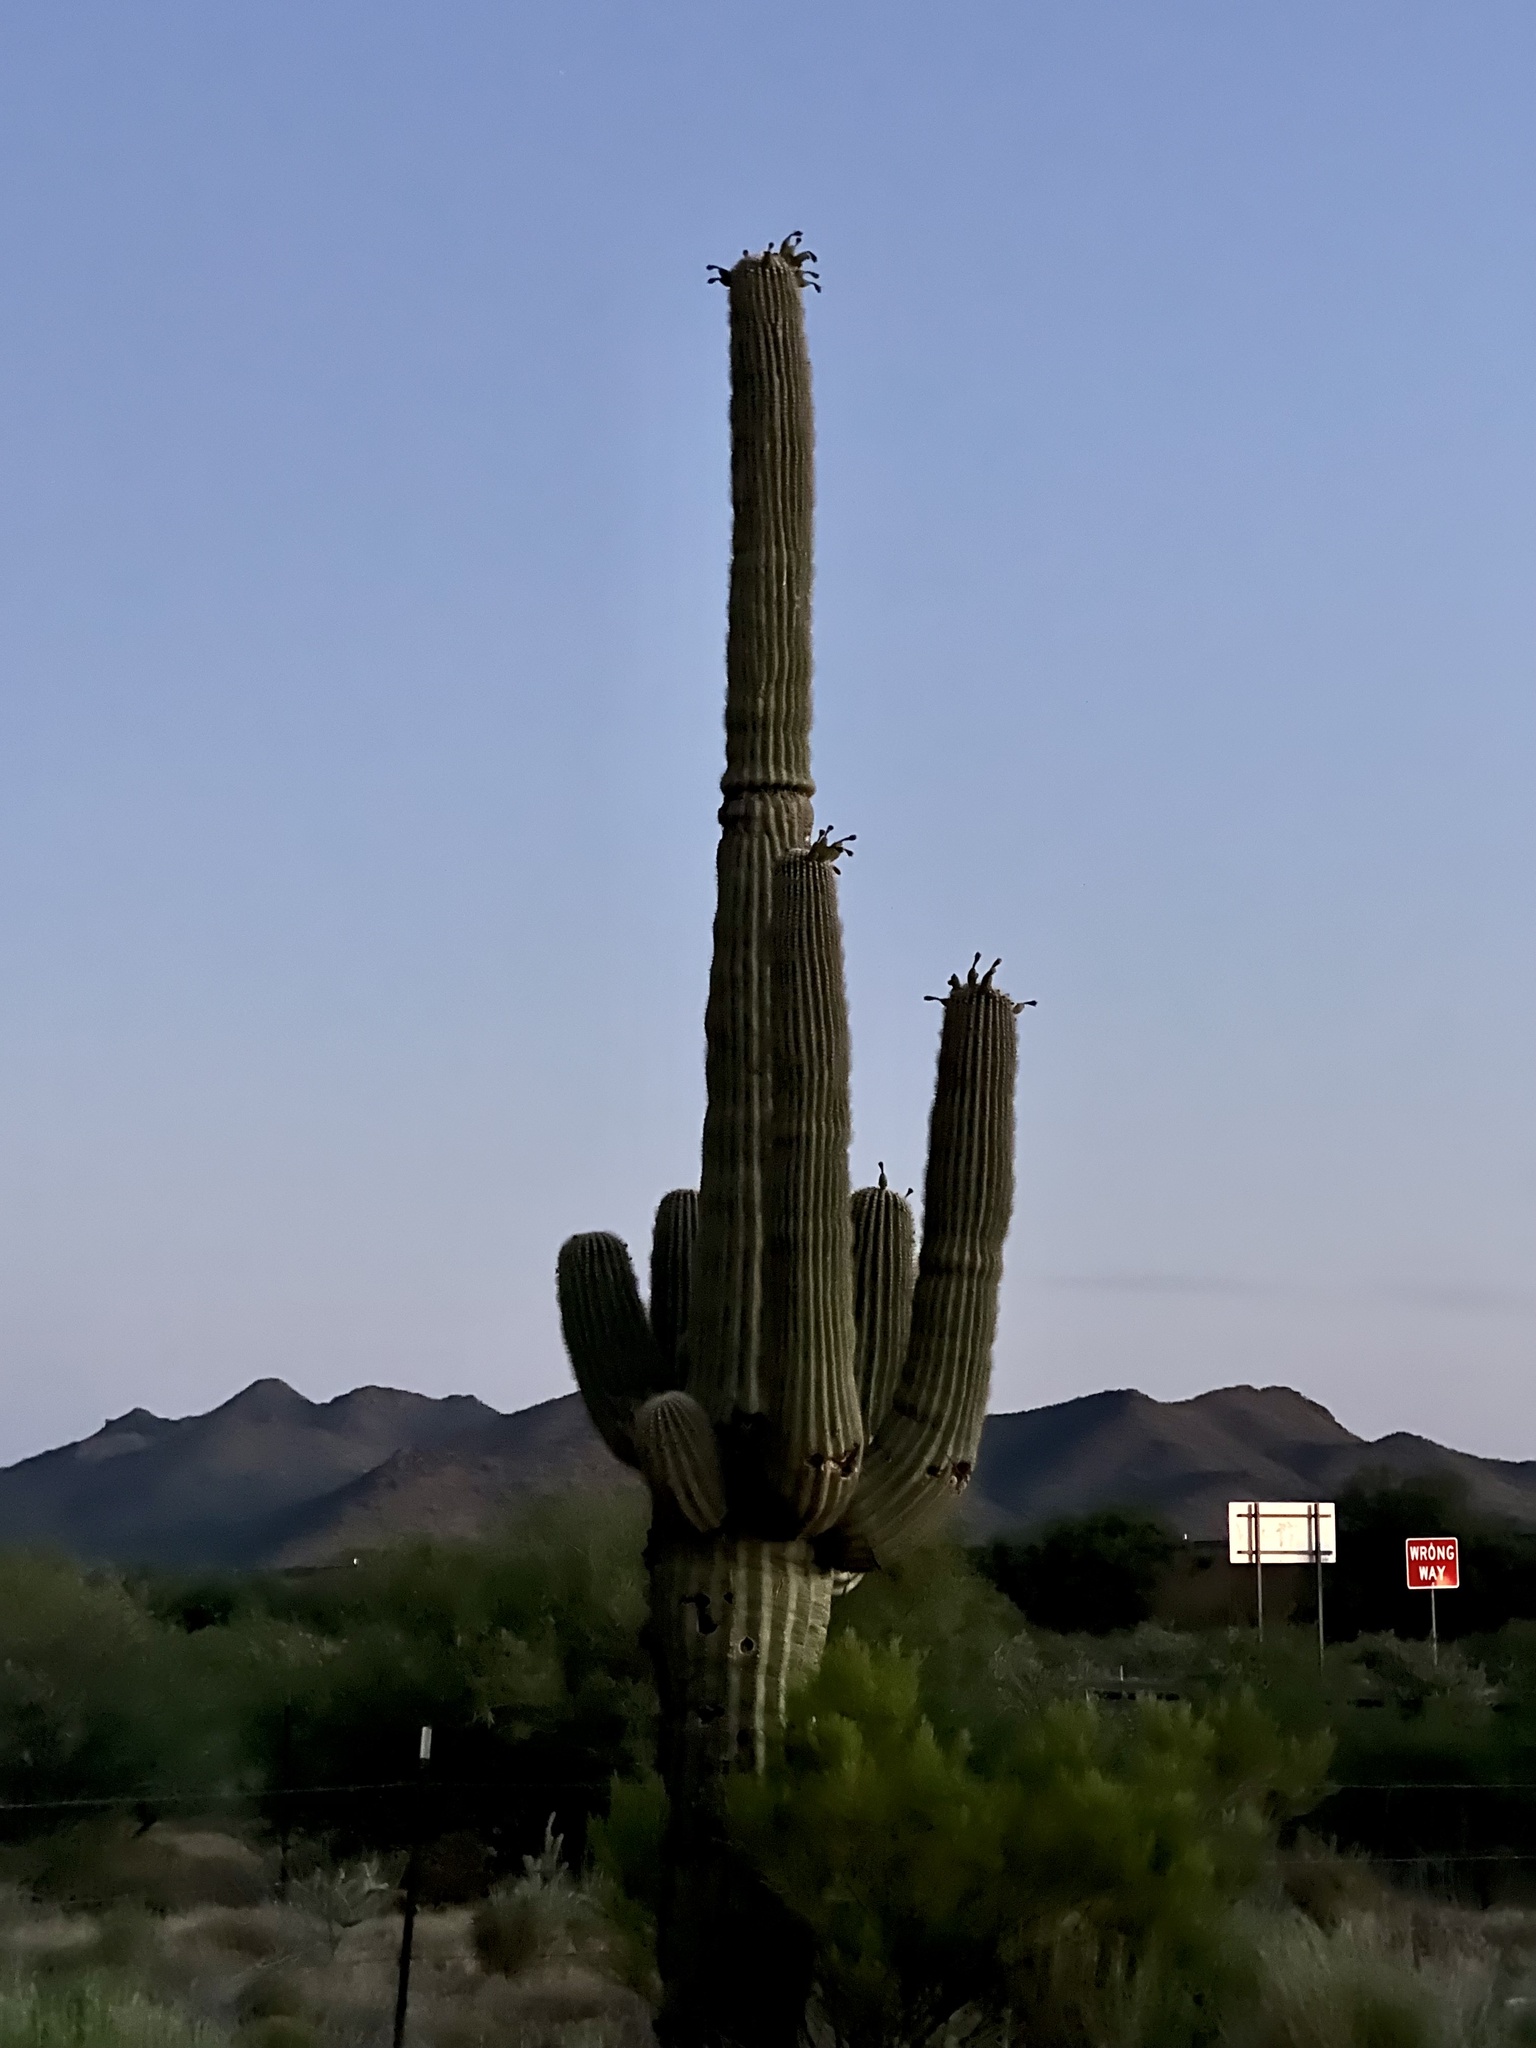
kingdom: Plantae
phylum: Tracheophyta
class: Magnoliopsida
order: Caryophyllales
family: Cactaceae
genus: Carnegiea
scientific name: Carnegiea gigantea
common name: Saguaro
